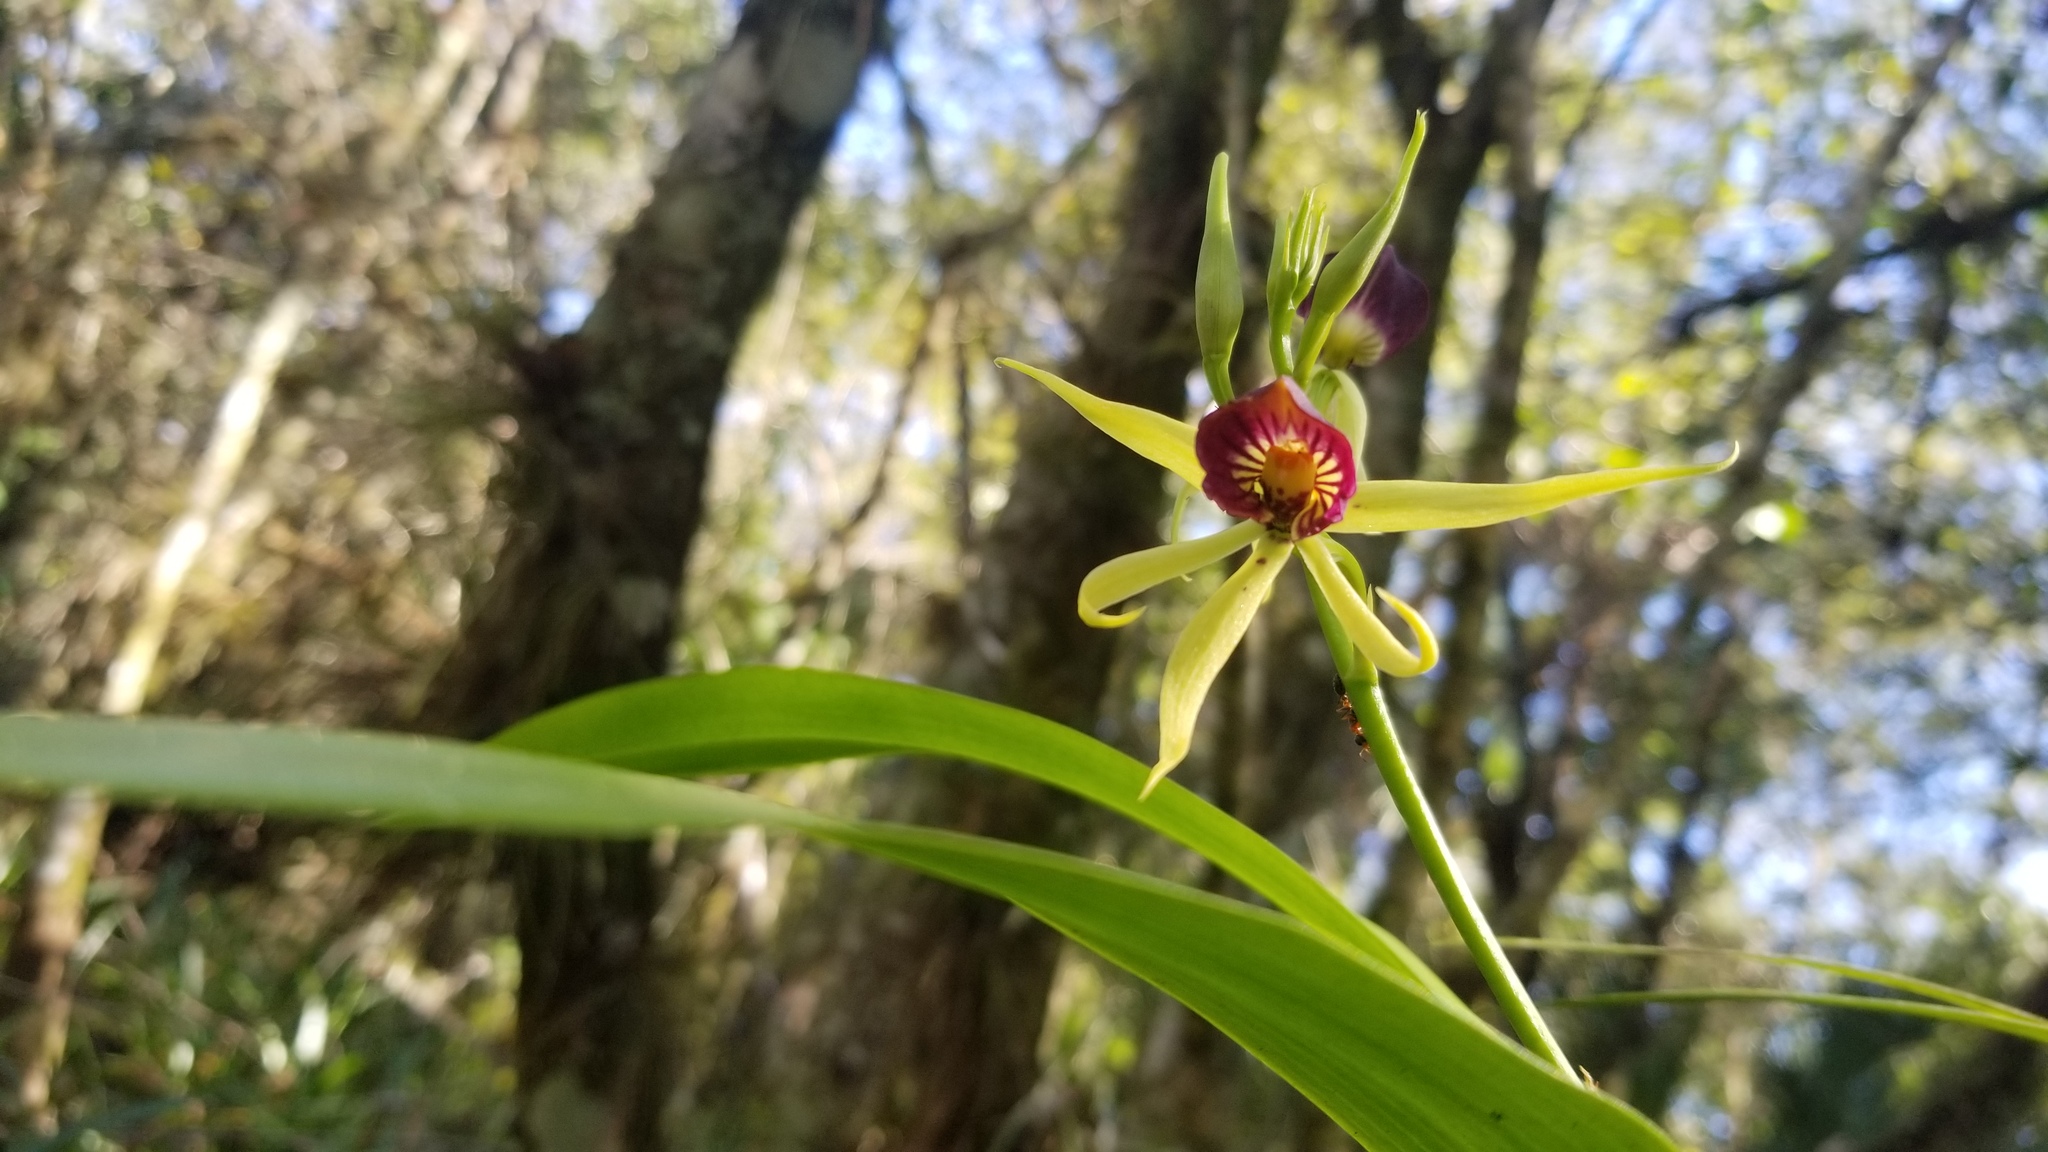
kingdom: Plantae
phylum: Tracheophyta
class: Liliopsida
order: Asparagales
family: Orchidaceae
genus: Prosthechea
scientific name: Prosthechea cochleata
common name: Clamshell orchid
